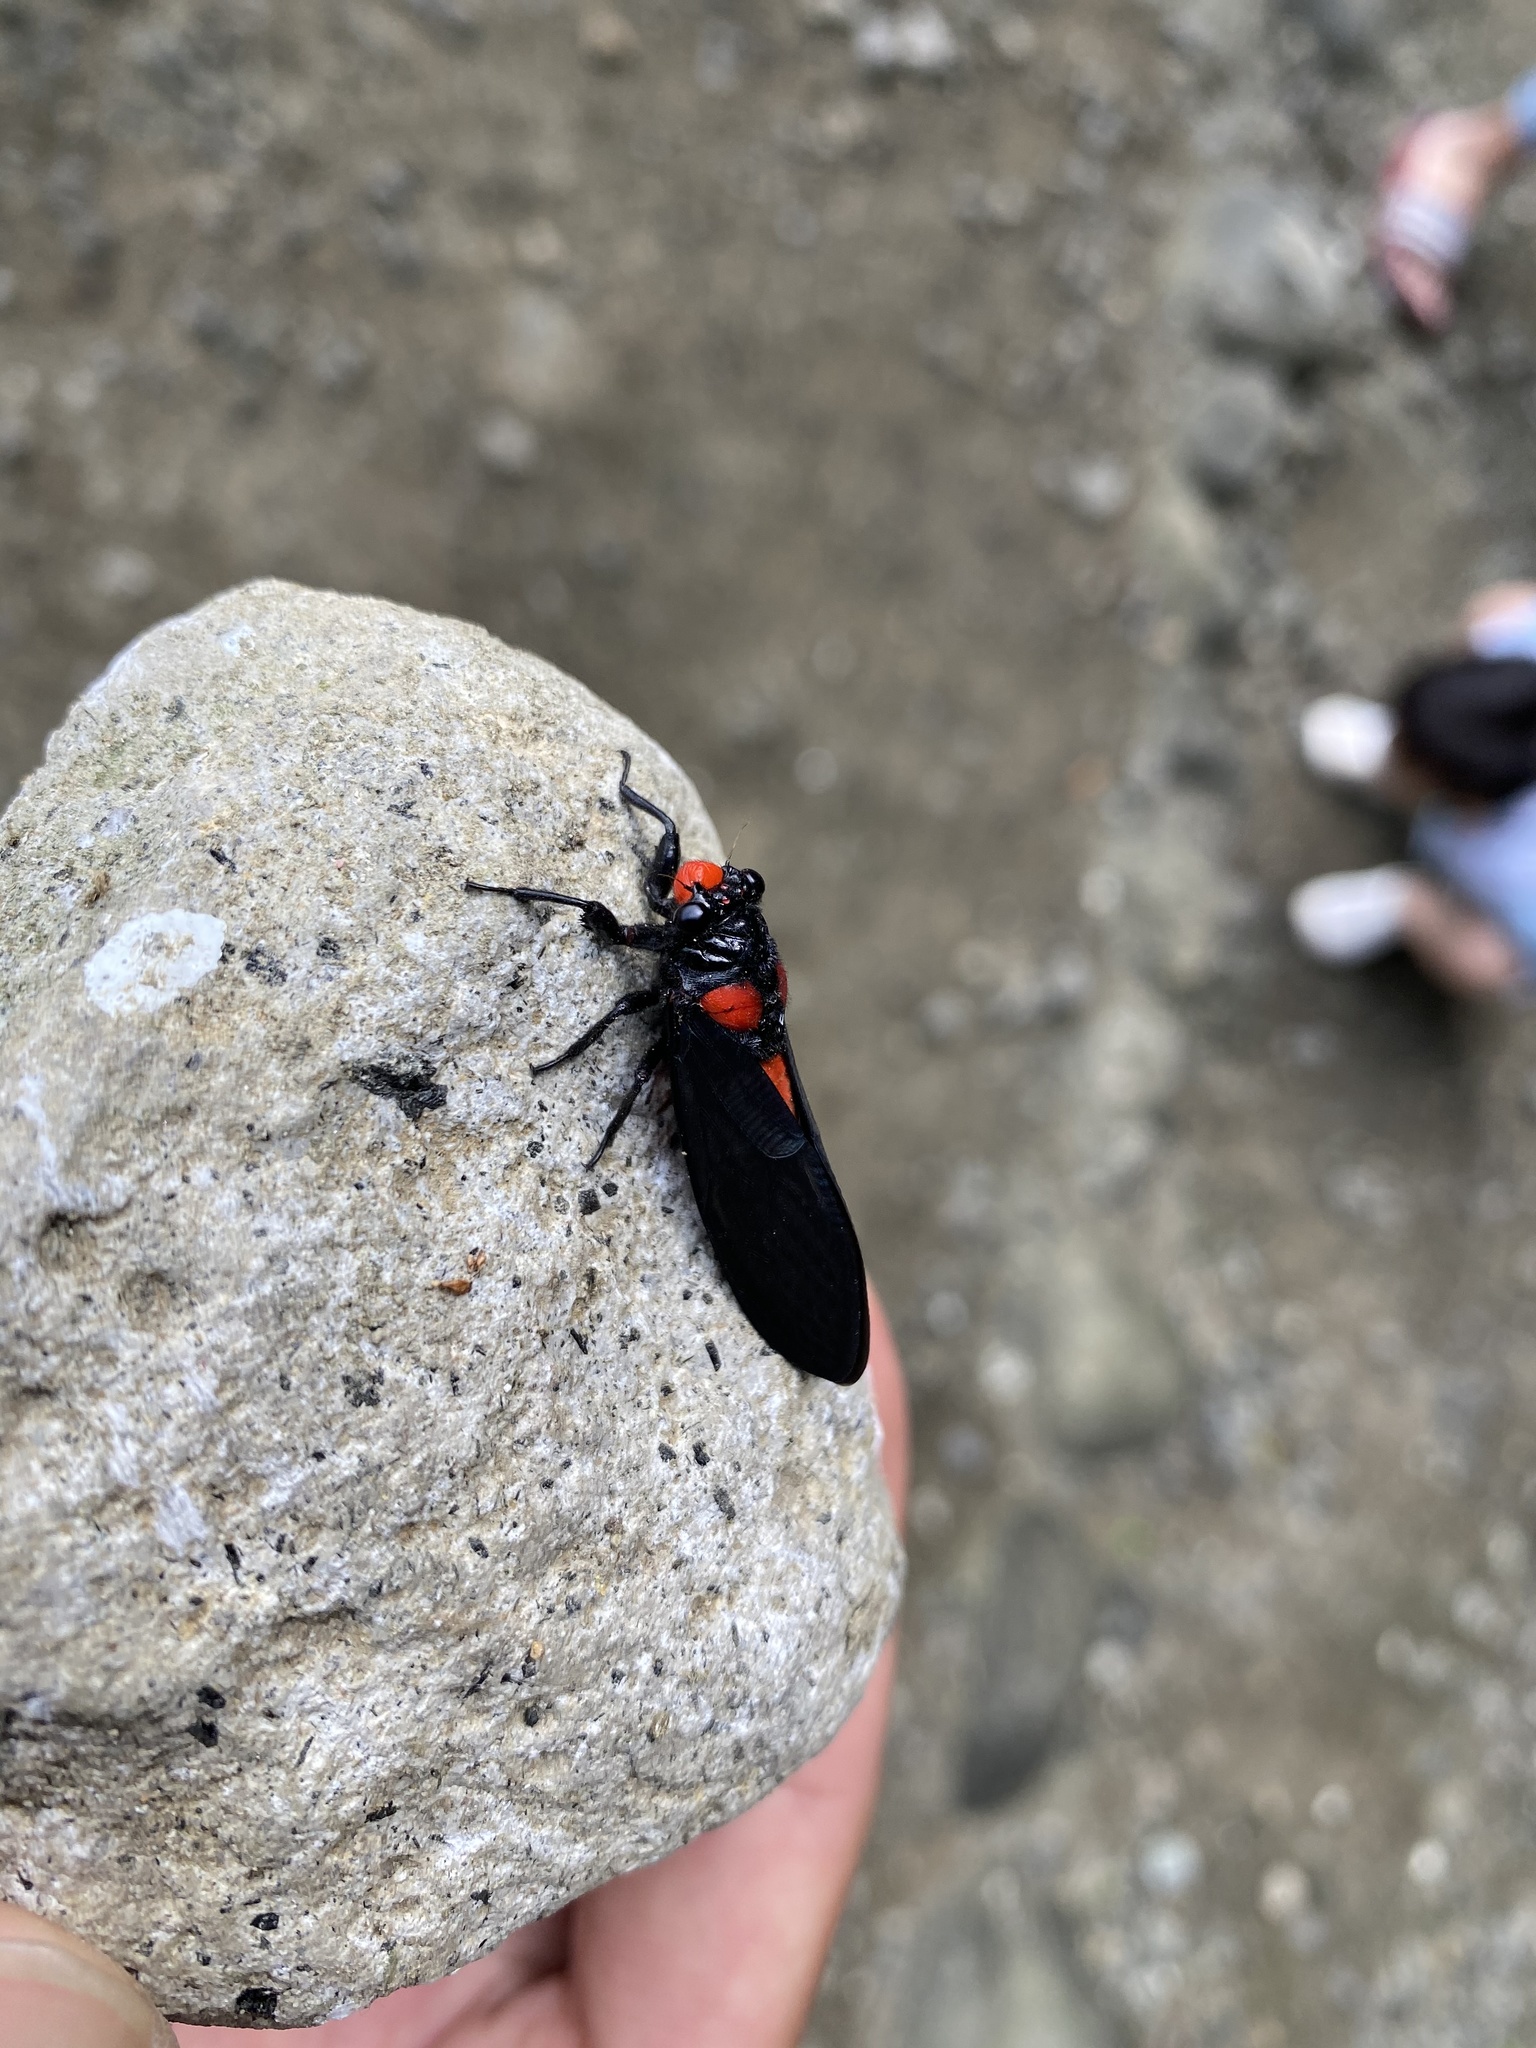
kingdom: Animalia
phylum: Arthropoda
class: Insecta
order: Hemiptera
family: Cicadidae
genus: Huechys
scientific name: Huechys sanguinea
